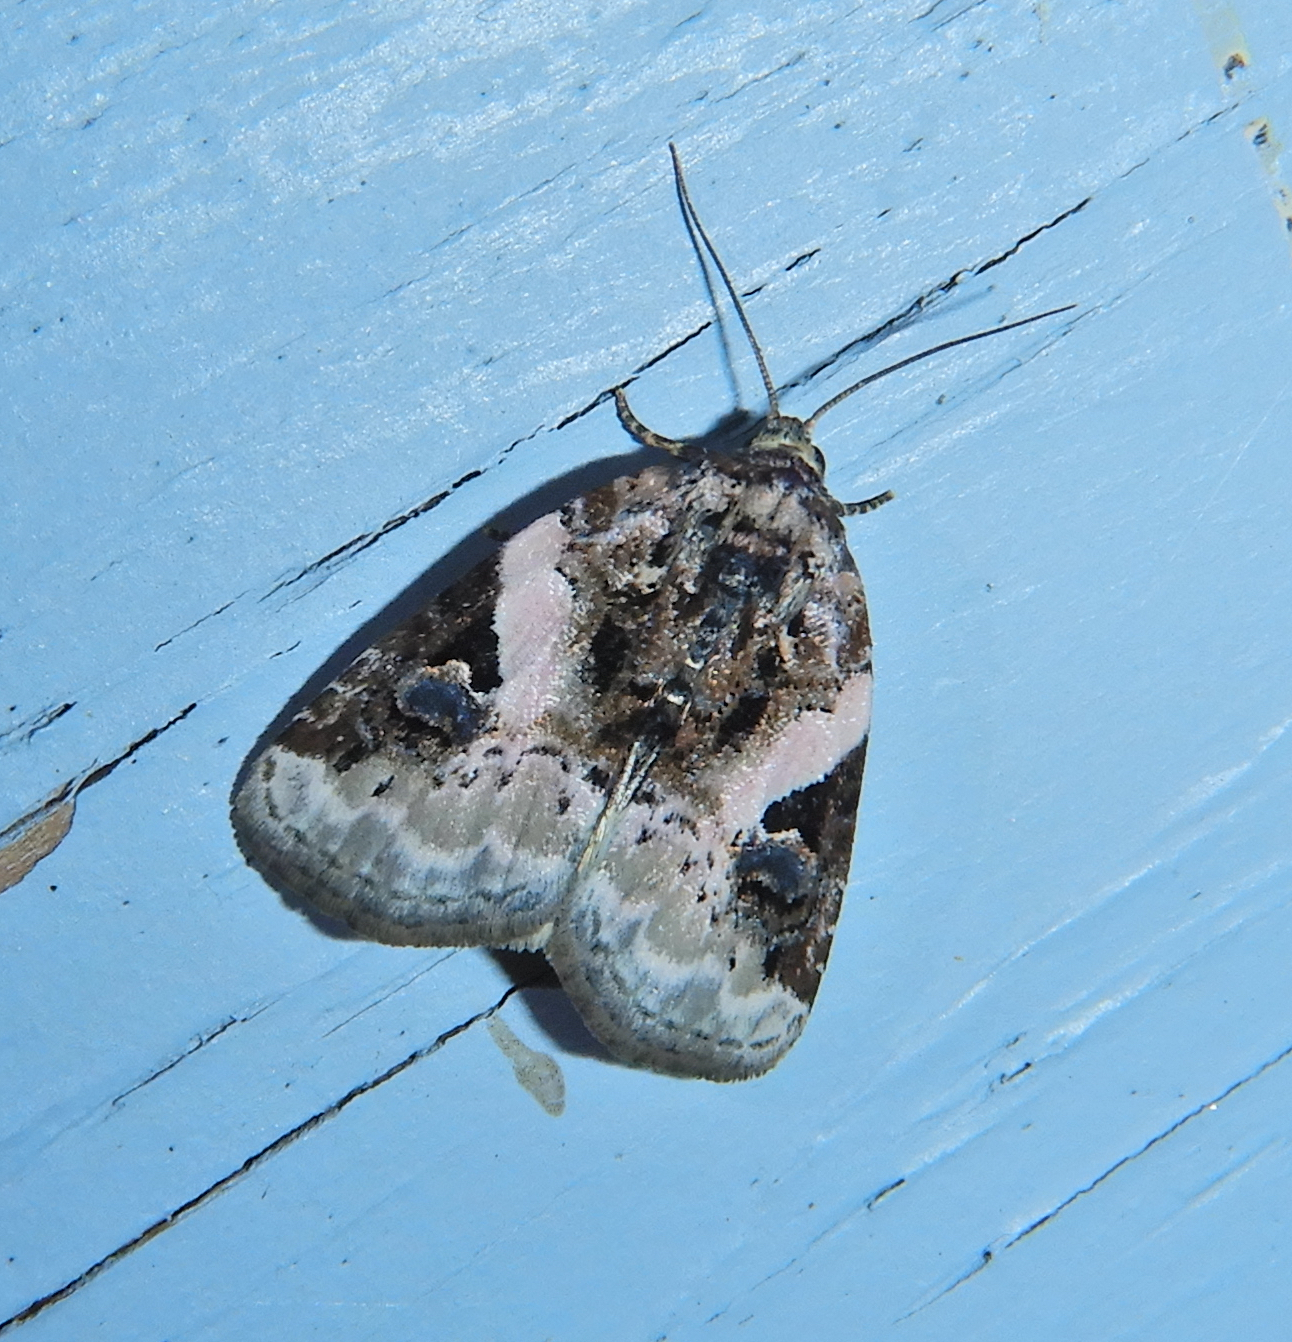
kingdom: Animalia
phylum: Arthropoda
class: Insecta
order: Lepidoptera
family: Noctuidae
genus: Pseudeustrotia
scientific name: Pseudeustrotia carneola
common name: Pink-barred lithacodia moth
